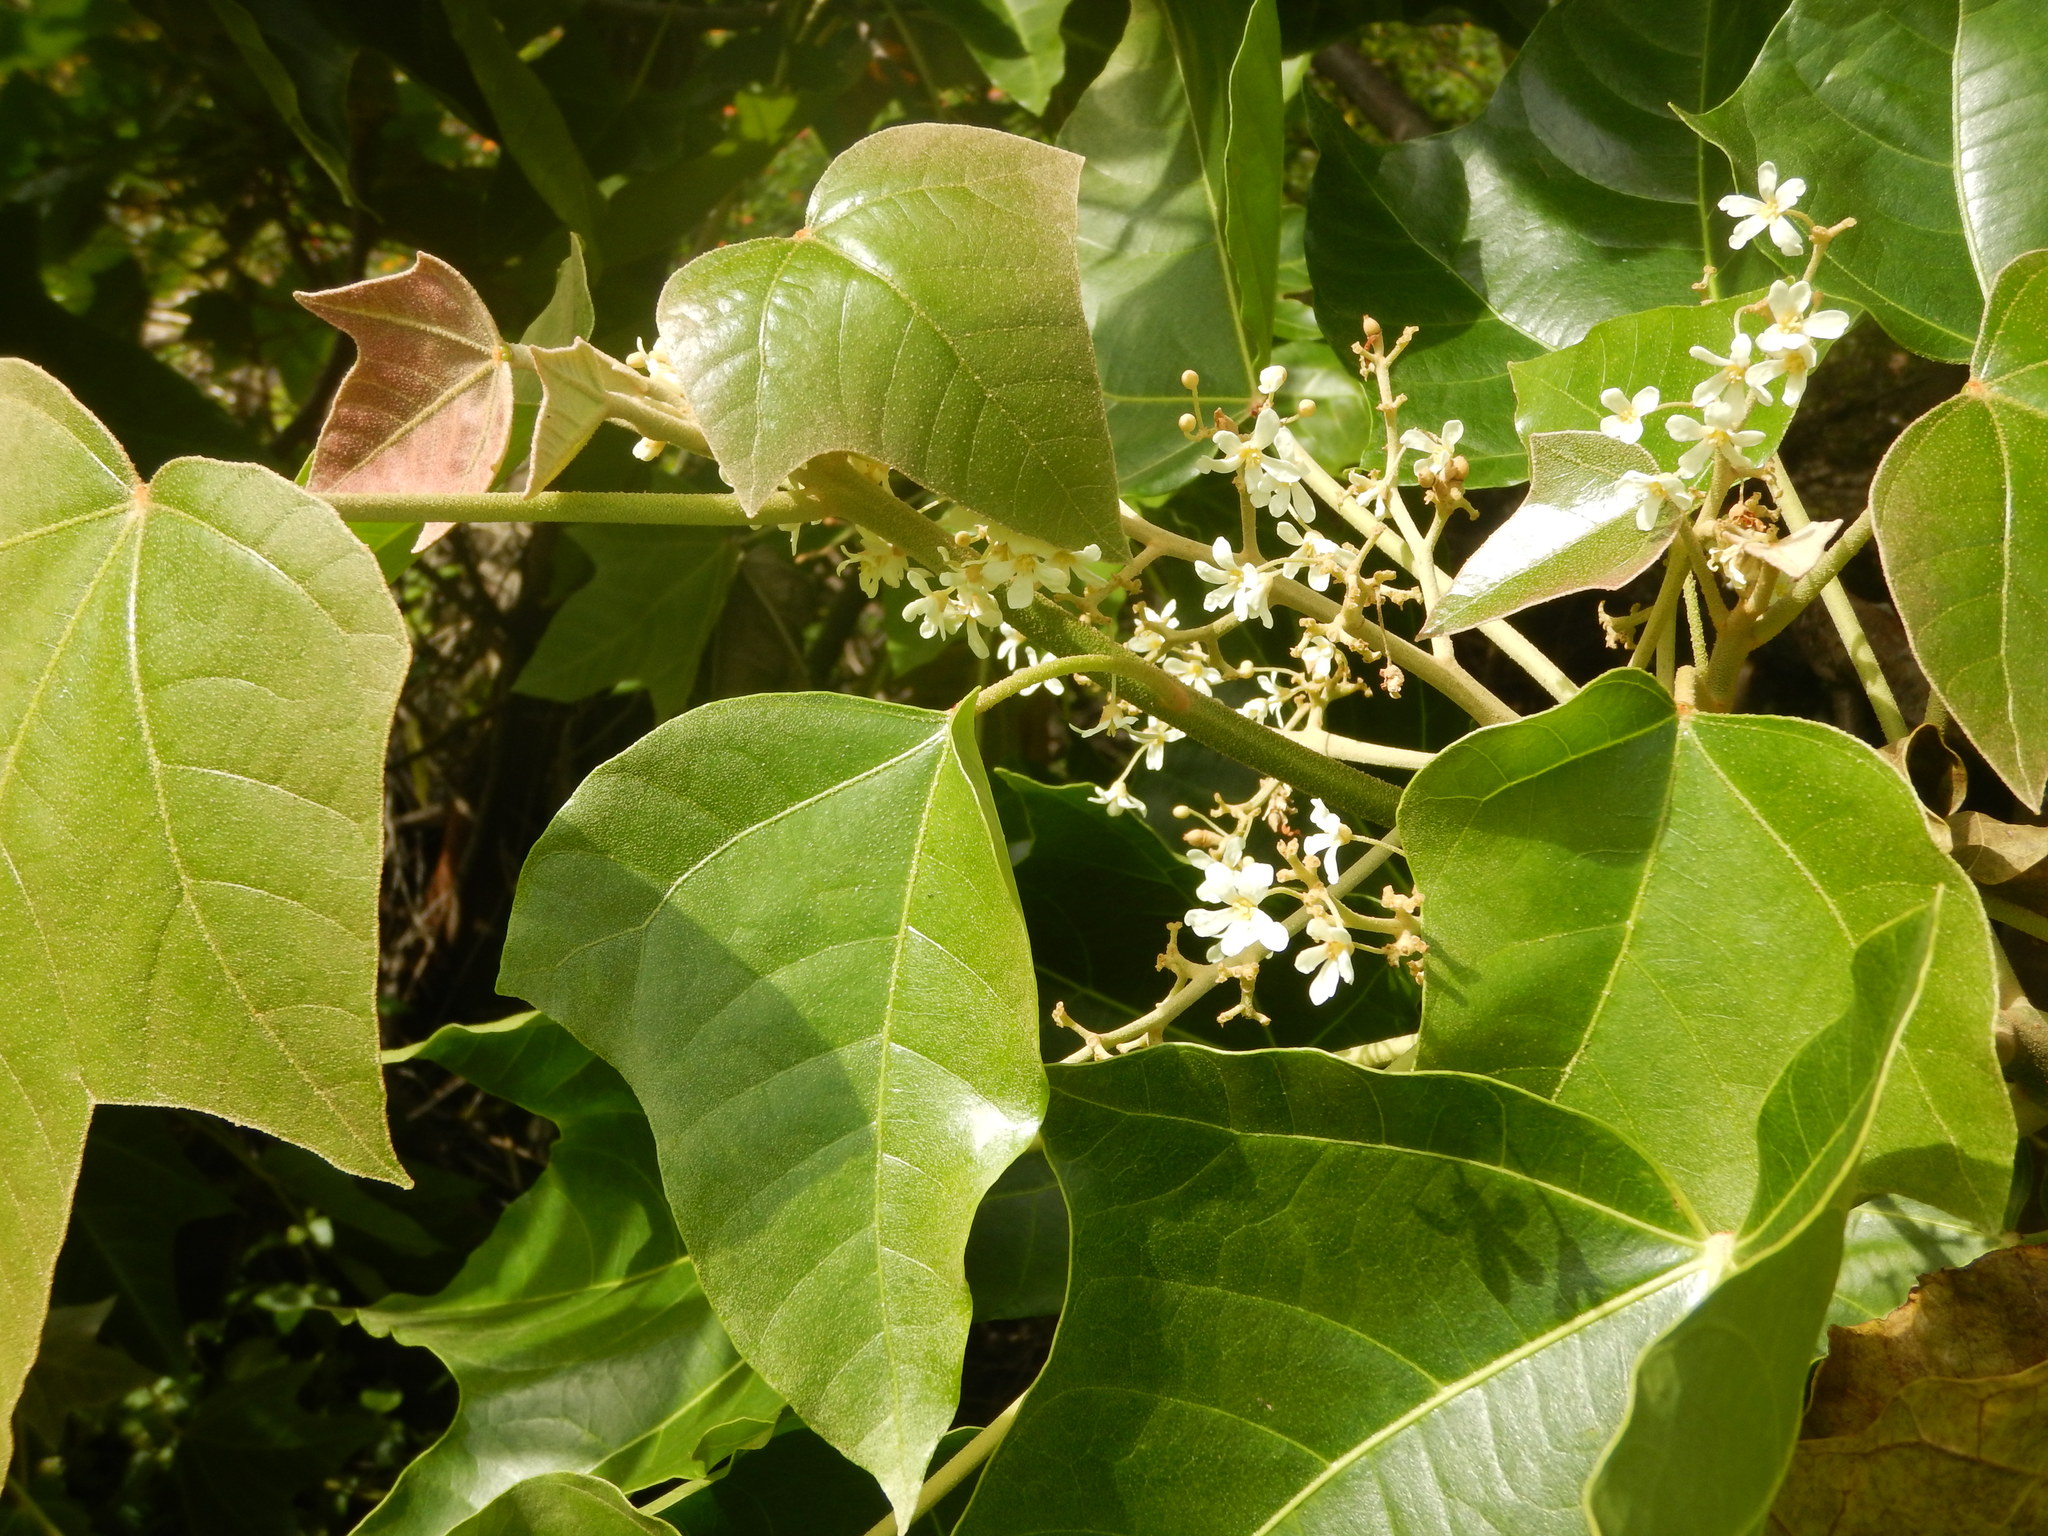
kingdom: Plantae
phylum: Tracheophyta
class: Magnoliopsida
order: Malpighiales
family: Euphorbiaceae
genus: Aleurites
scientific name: Aleurites moluccanus
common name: Candlenut tree
